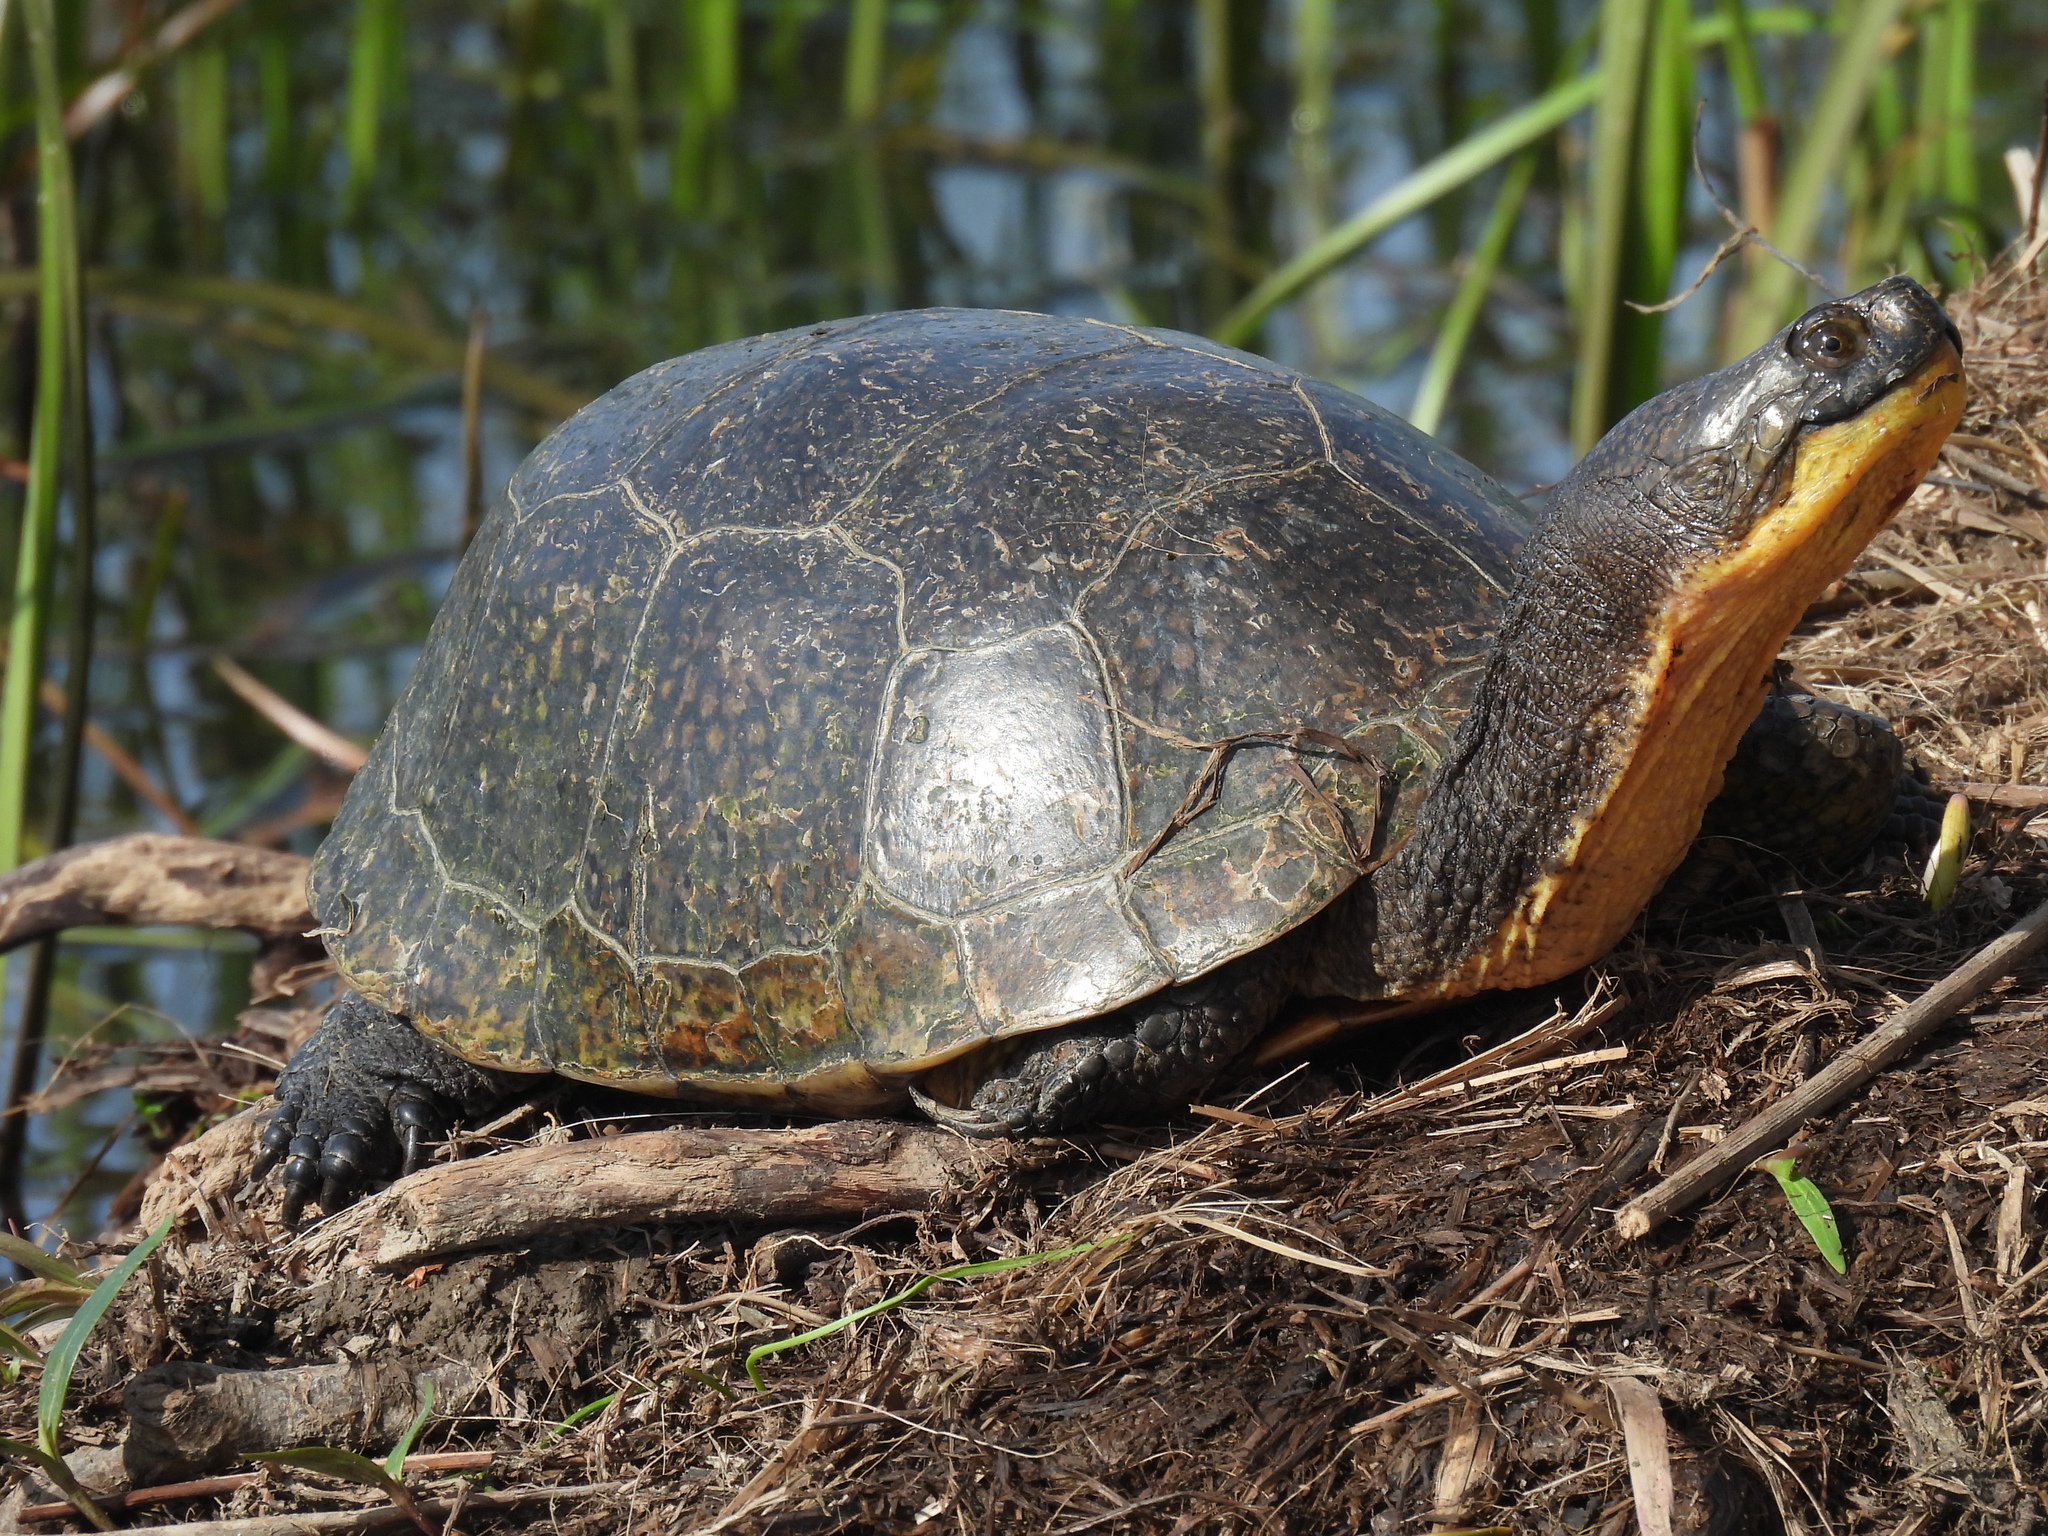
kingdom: Animalia
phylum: Chordata
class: Testudines
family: Emydidae
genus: Emys
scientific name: Emys blandingii
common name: Blanding's turtle
